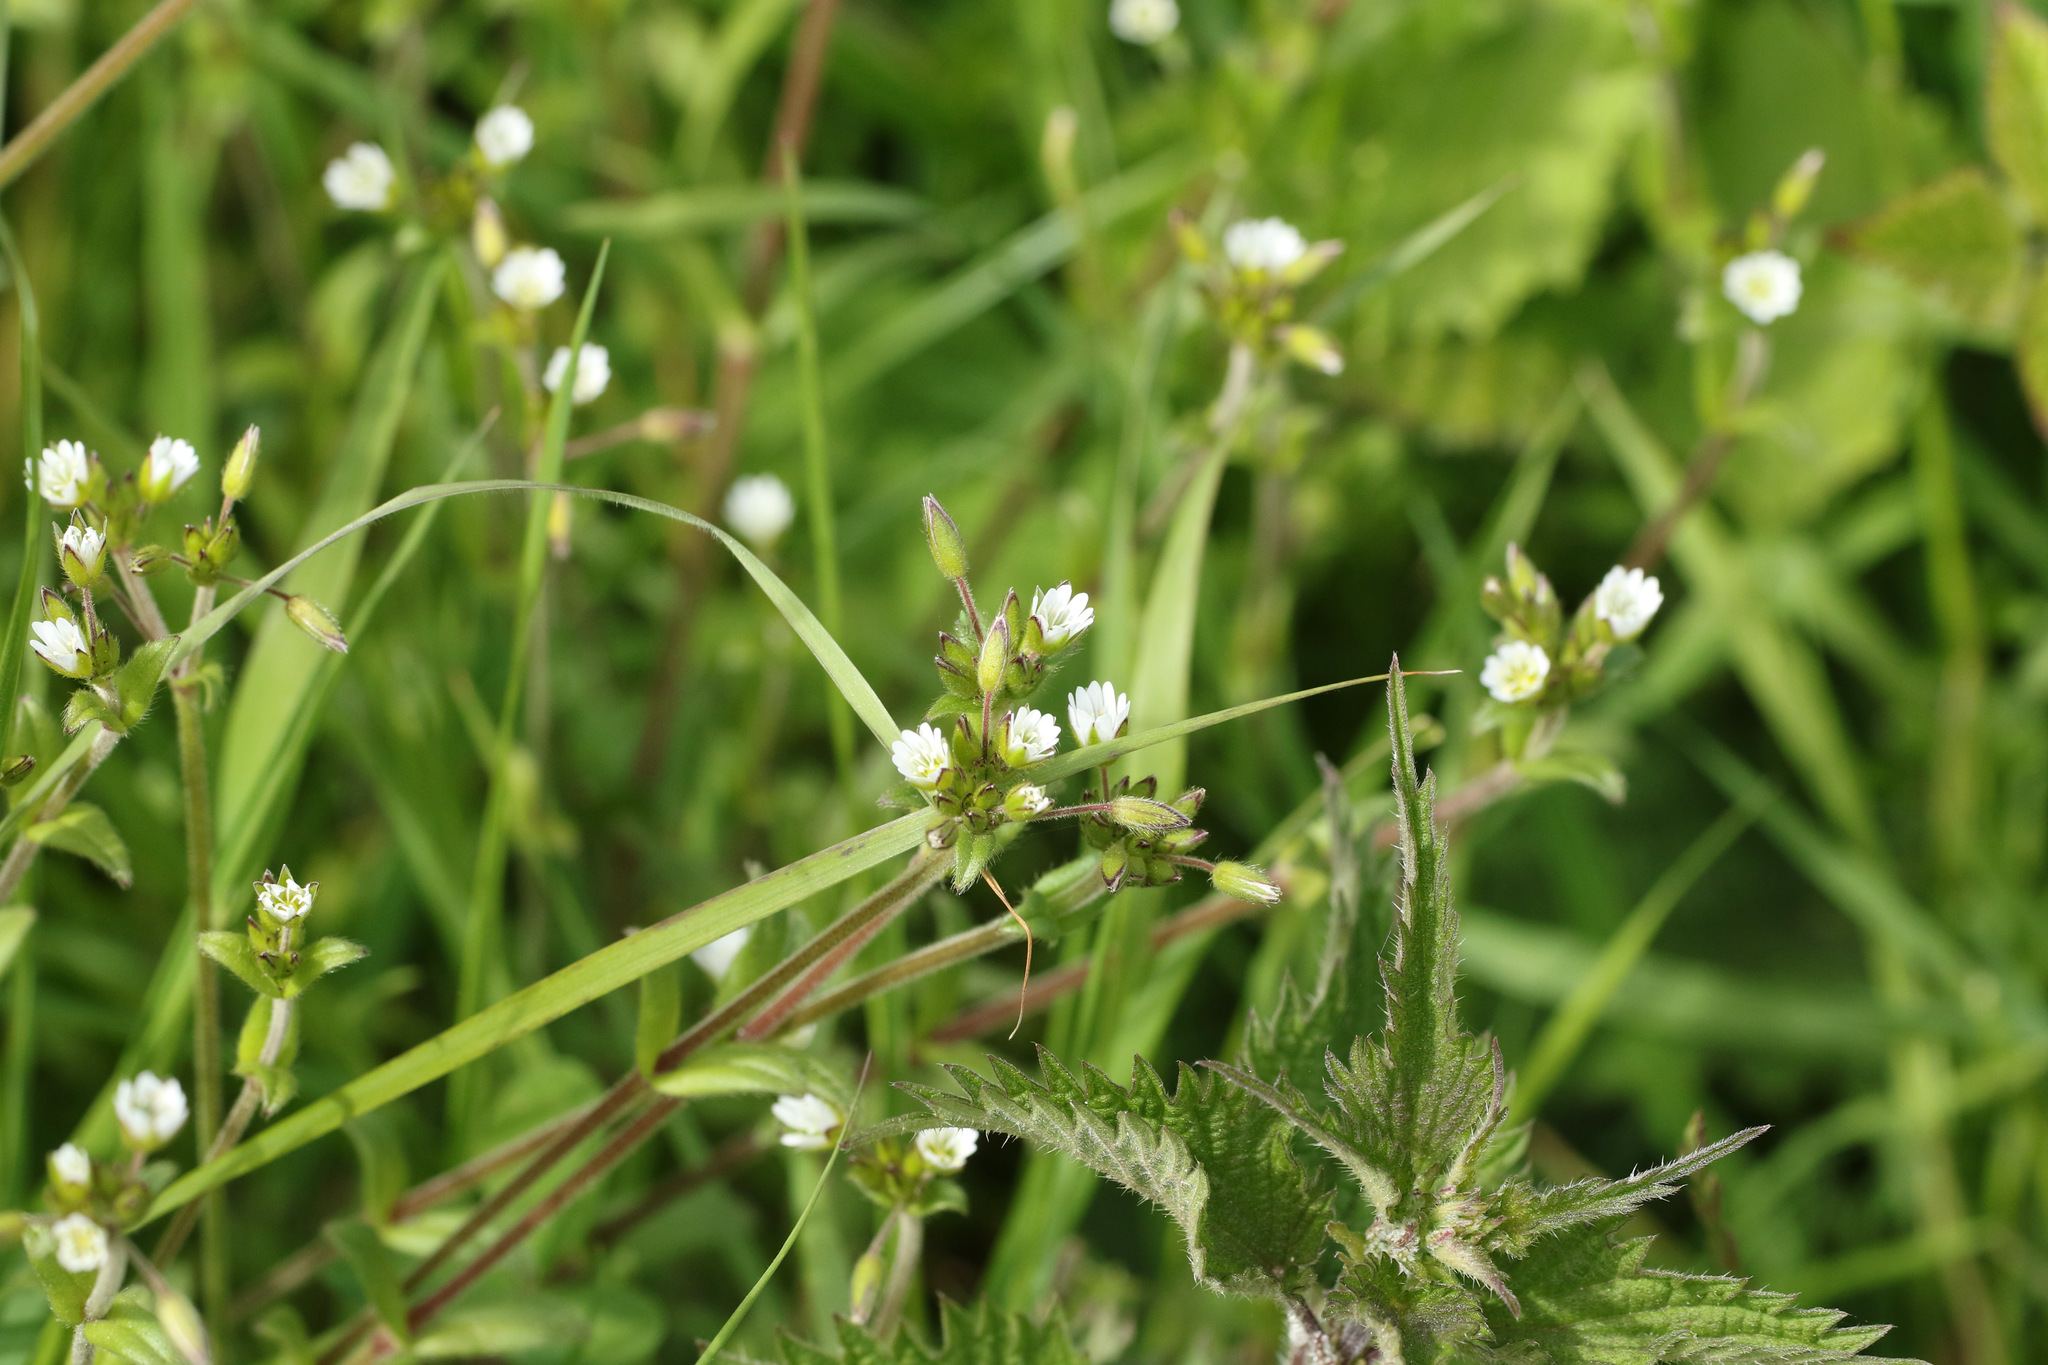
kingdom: Plantae
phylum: Tracheophyta
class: Magnoliopsida
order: Caryophyllales
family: Caryophyllaceae
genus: Cerastium
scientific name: Cerastium fontanum
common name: Common mouse-ear
